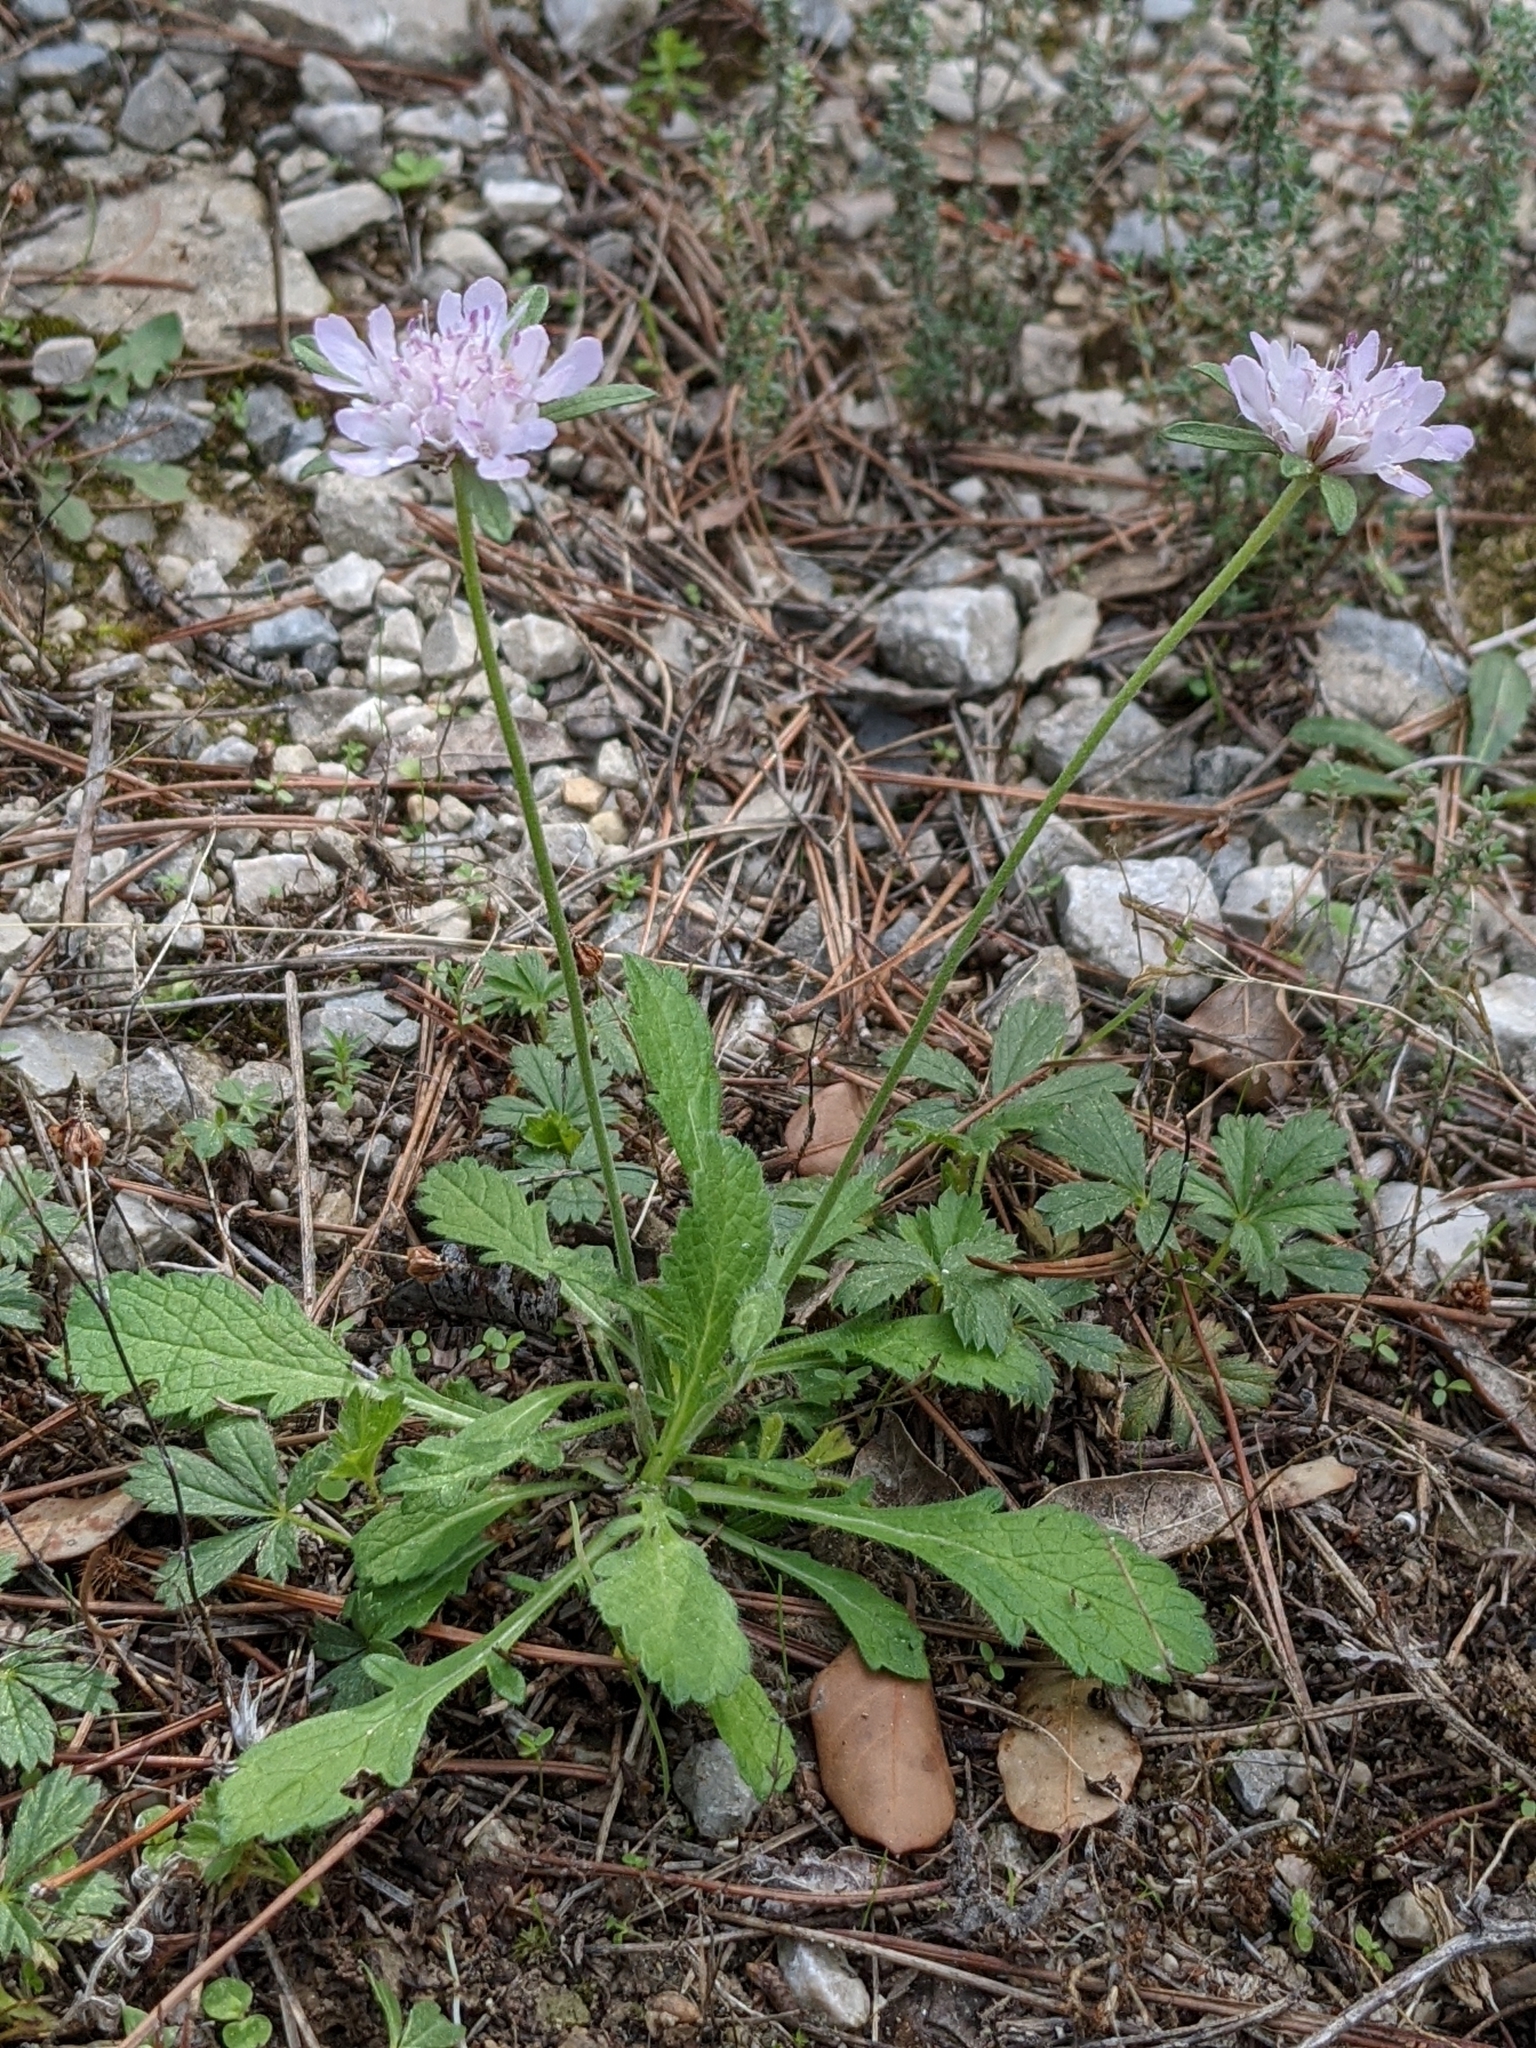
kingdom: Plantae
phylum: Tracheophyta
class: Magnoliopsida
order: Dipsacales
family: Caprifoliaceae
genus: Scabiosa
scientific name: Scabiosa columbaria
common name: Small scabious
